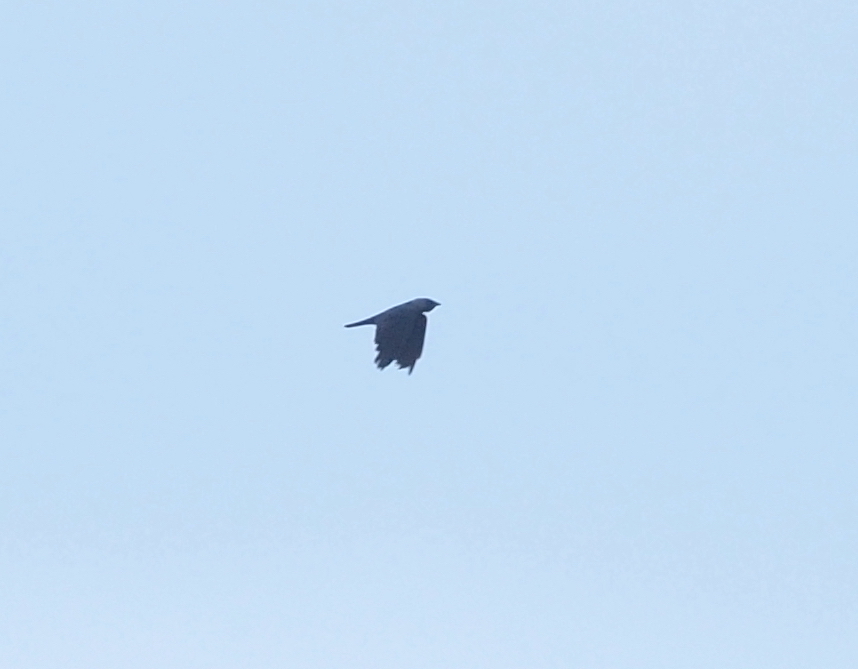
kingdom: Animalia
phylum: Chordata
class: Aves
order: Passeriformes
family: Corvidae
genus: Coloeus
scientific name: Coloeus monedula
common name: Western jackdaw
